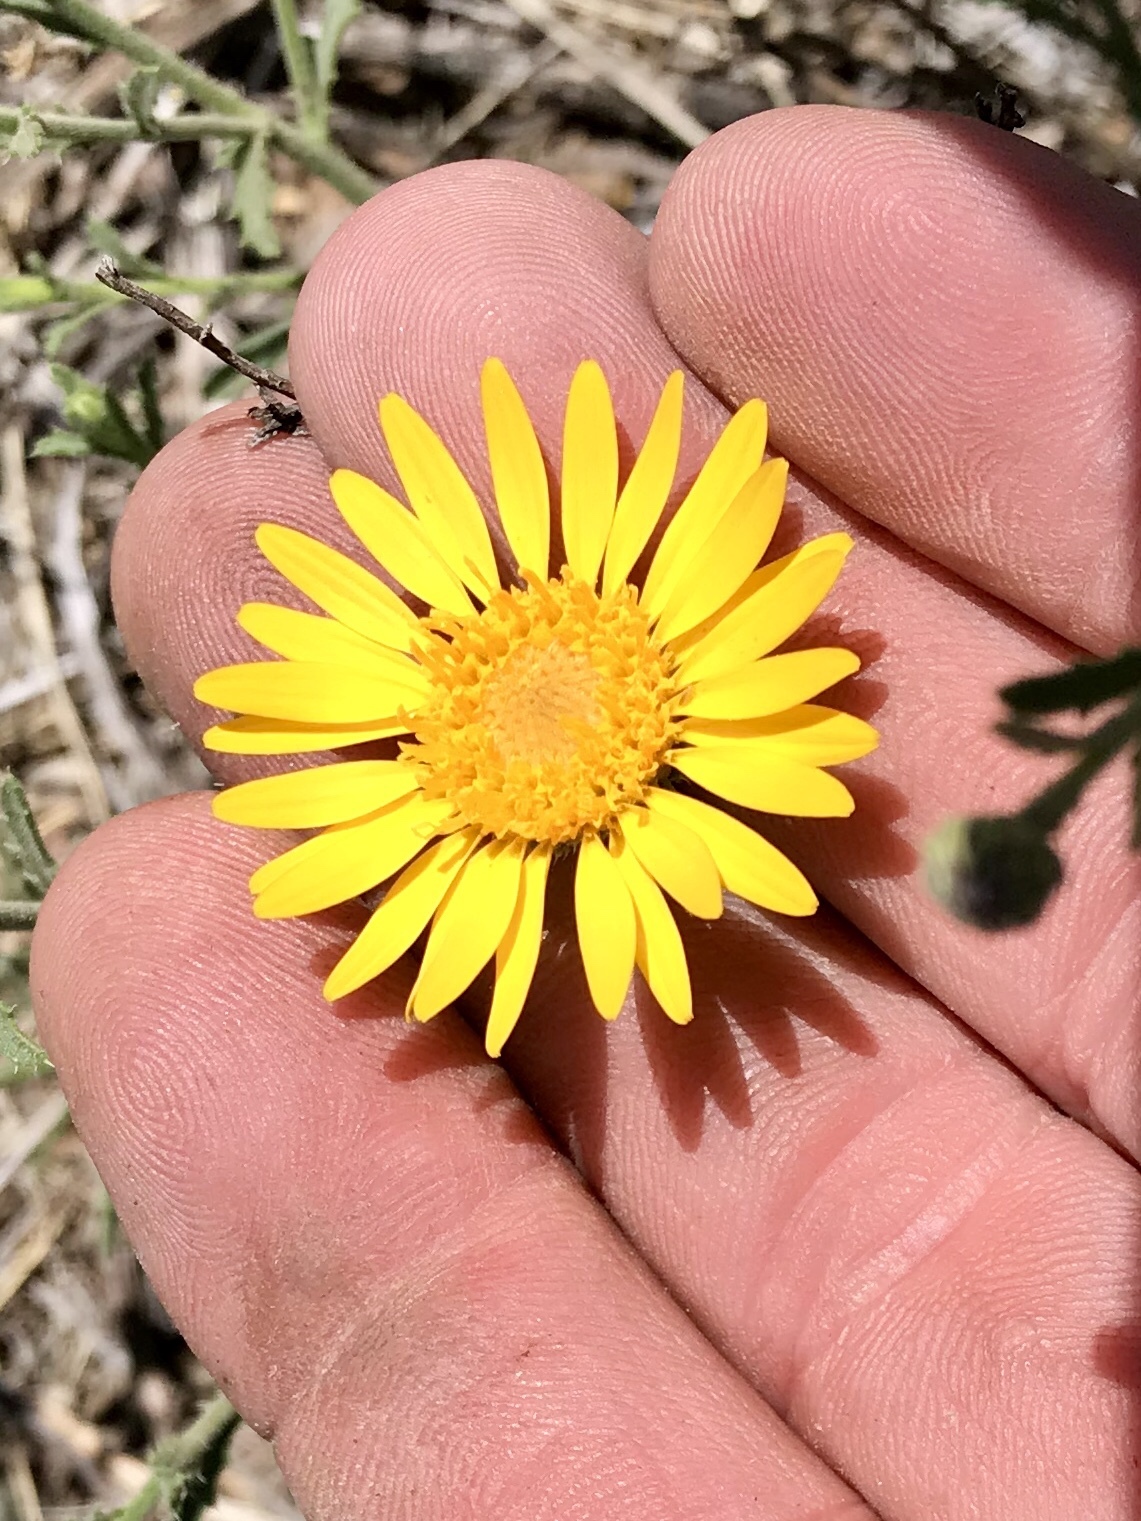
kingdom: Plantae
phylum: Tracheophyta
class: Magnoliopsida
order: Asterales
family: Asteraceae
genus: Xanthisma
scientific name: Xanthisma spinulosum
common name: Spiny goldenweed
